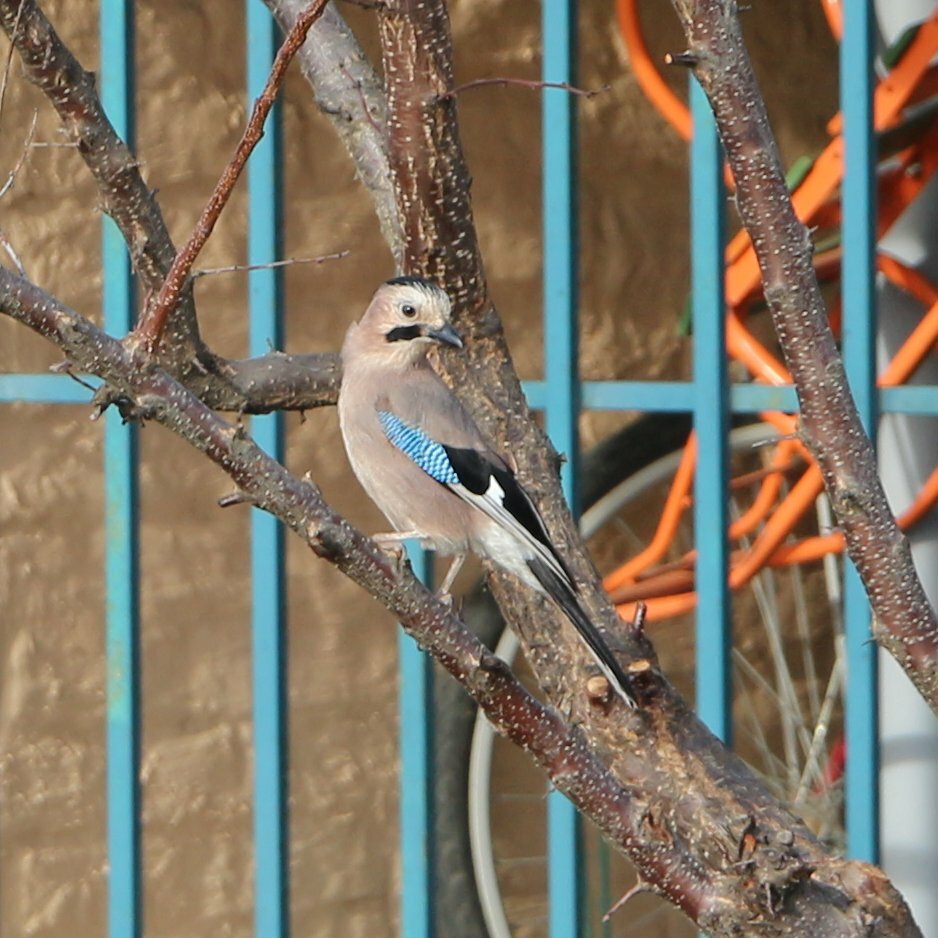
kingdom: Animalia
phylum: Chordata
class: Aves
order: Passeriformes
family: Corvidae
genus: Garrulus
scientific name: Garrulus glandarius
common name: Eurasian jay
